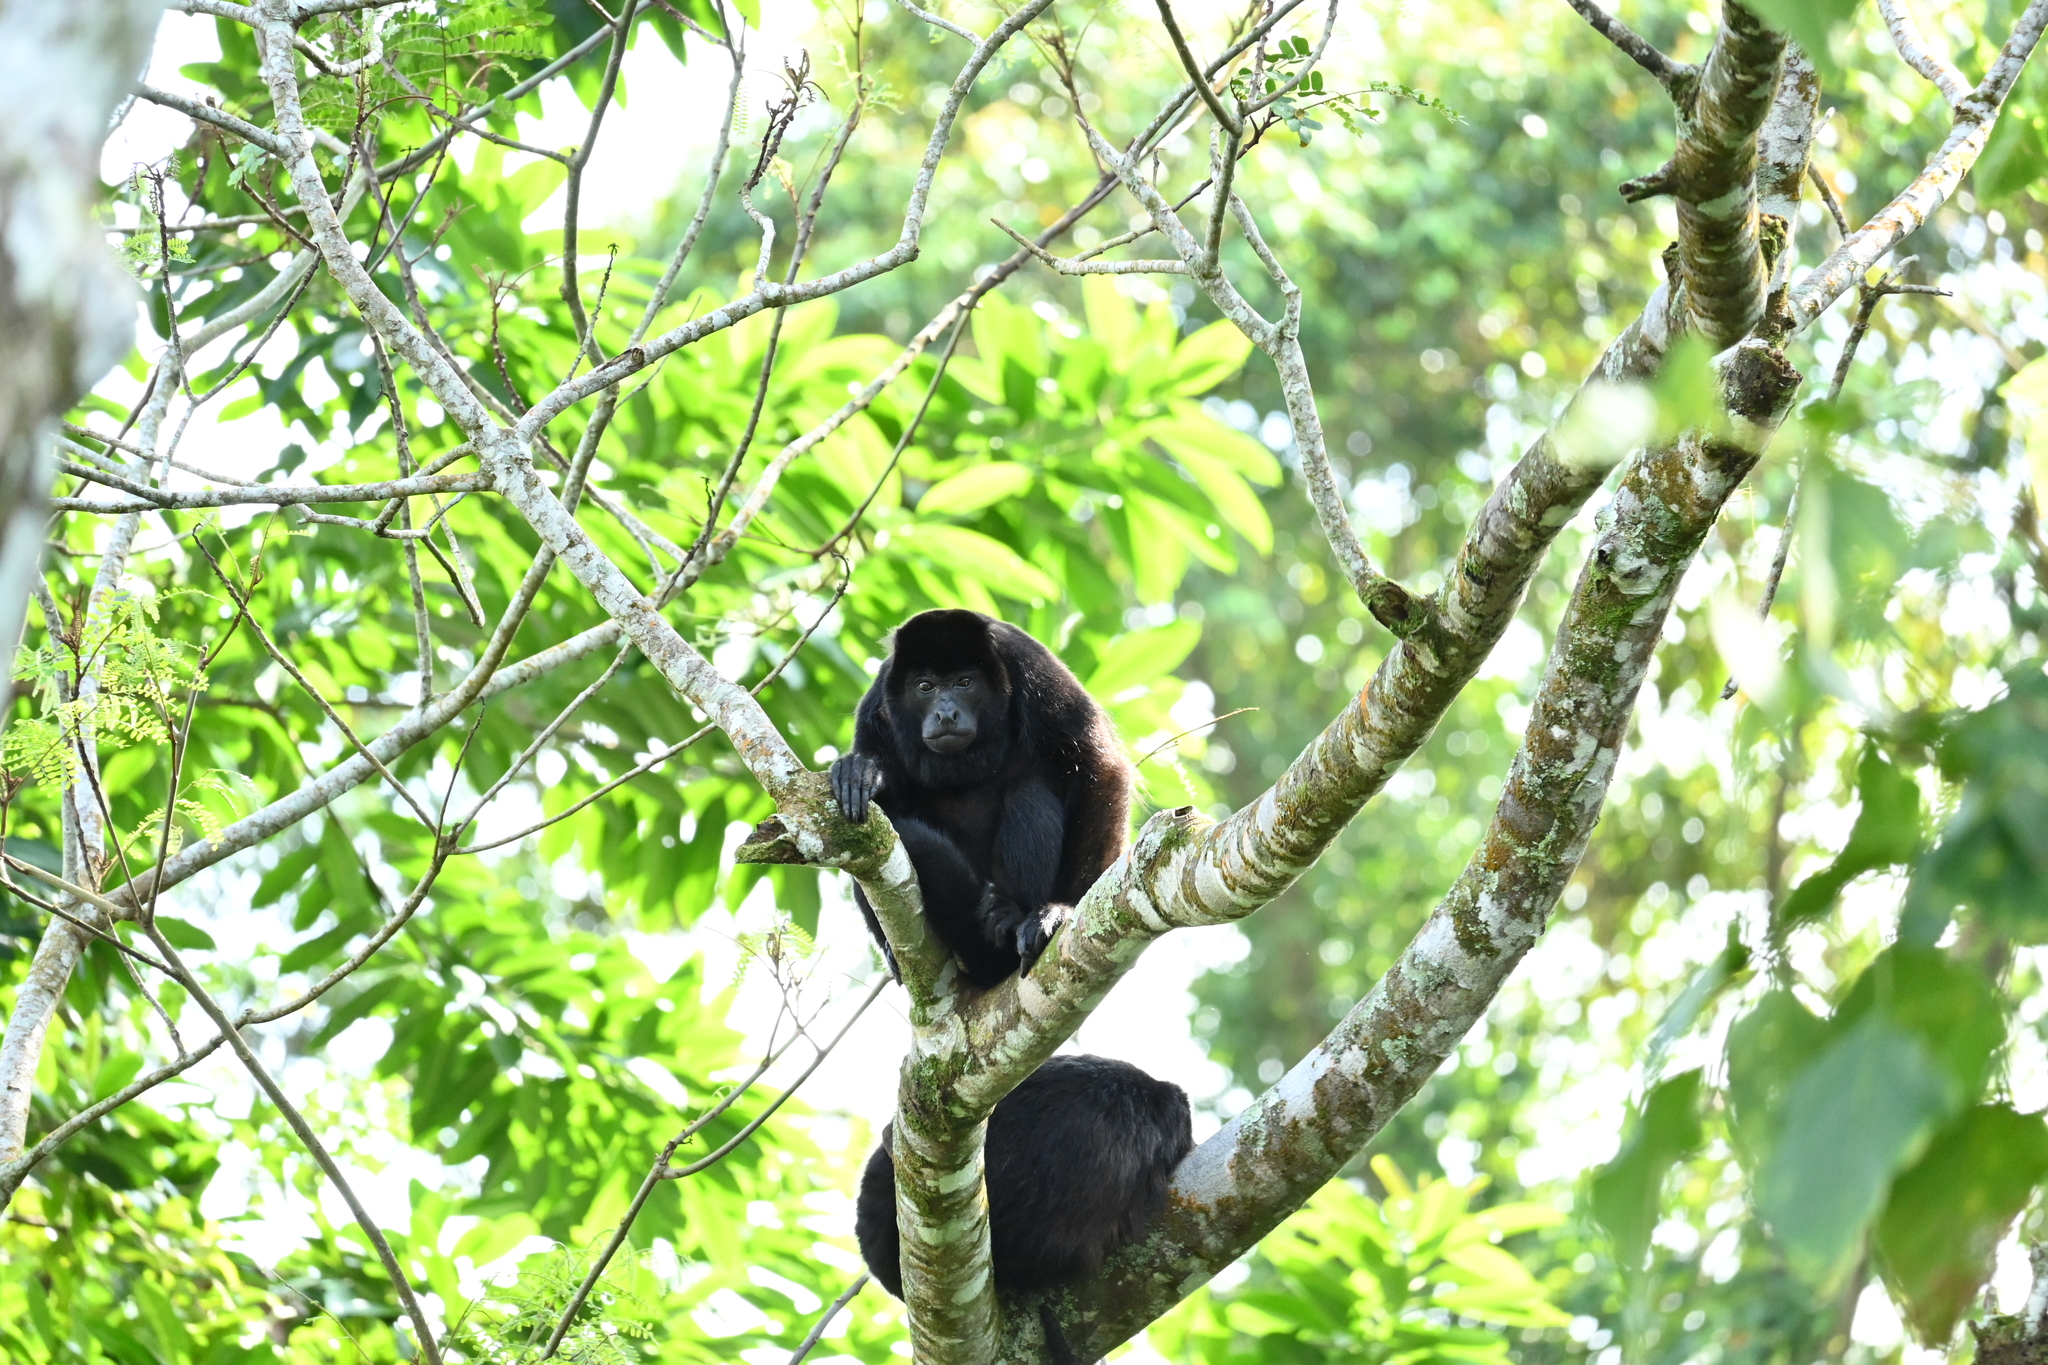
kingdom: Animalia
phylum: Chordata
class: Mammalia
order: Primates
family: Atelidae
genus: Alouatta
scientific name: Alouatta palliata
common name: Mantled howler
